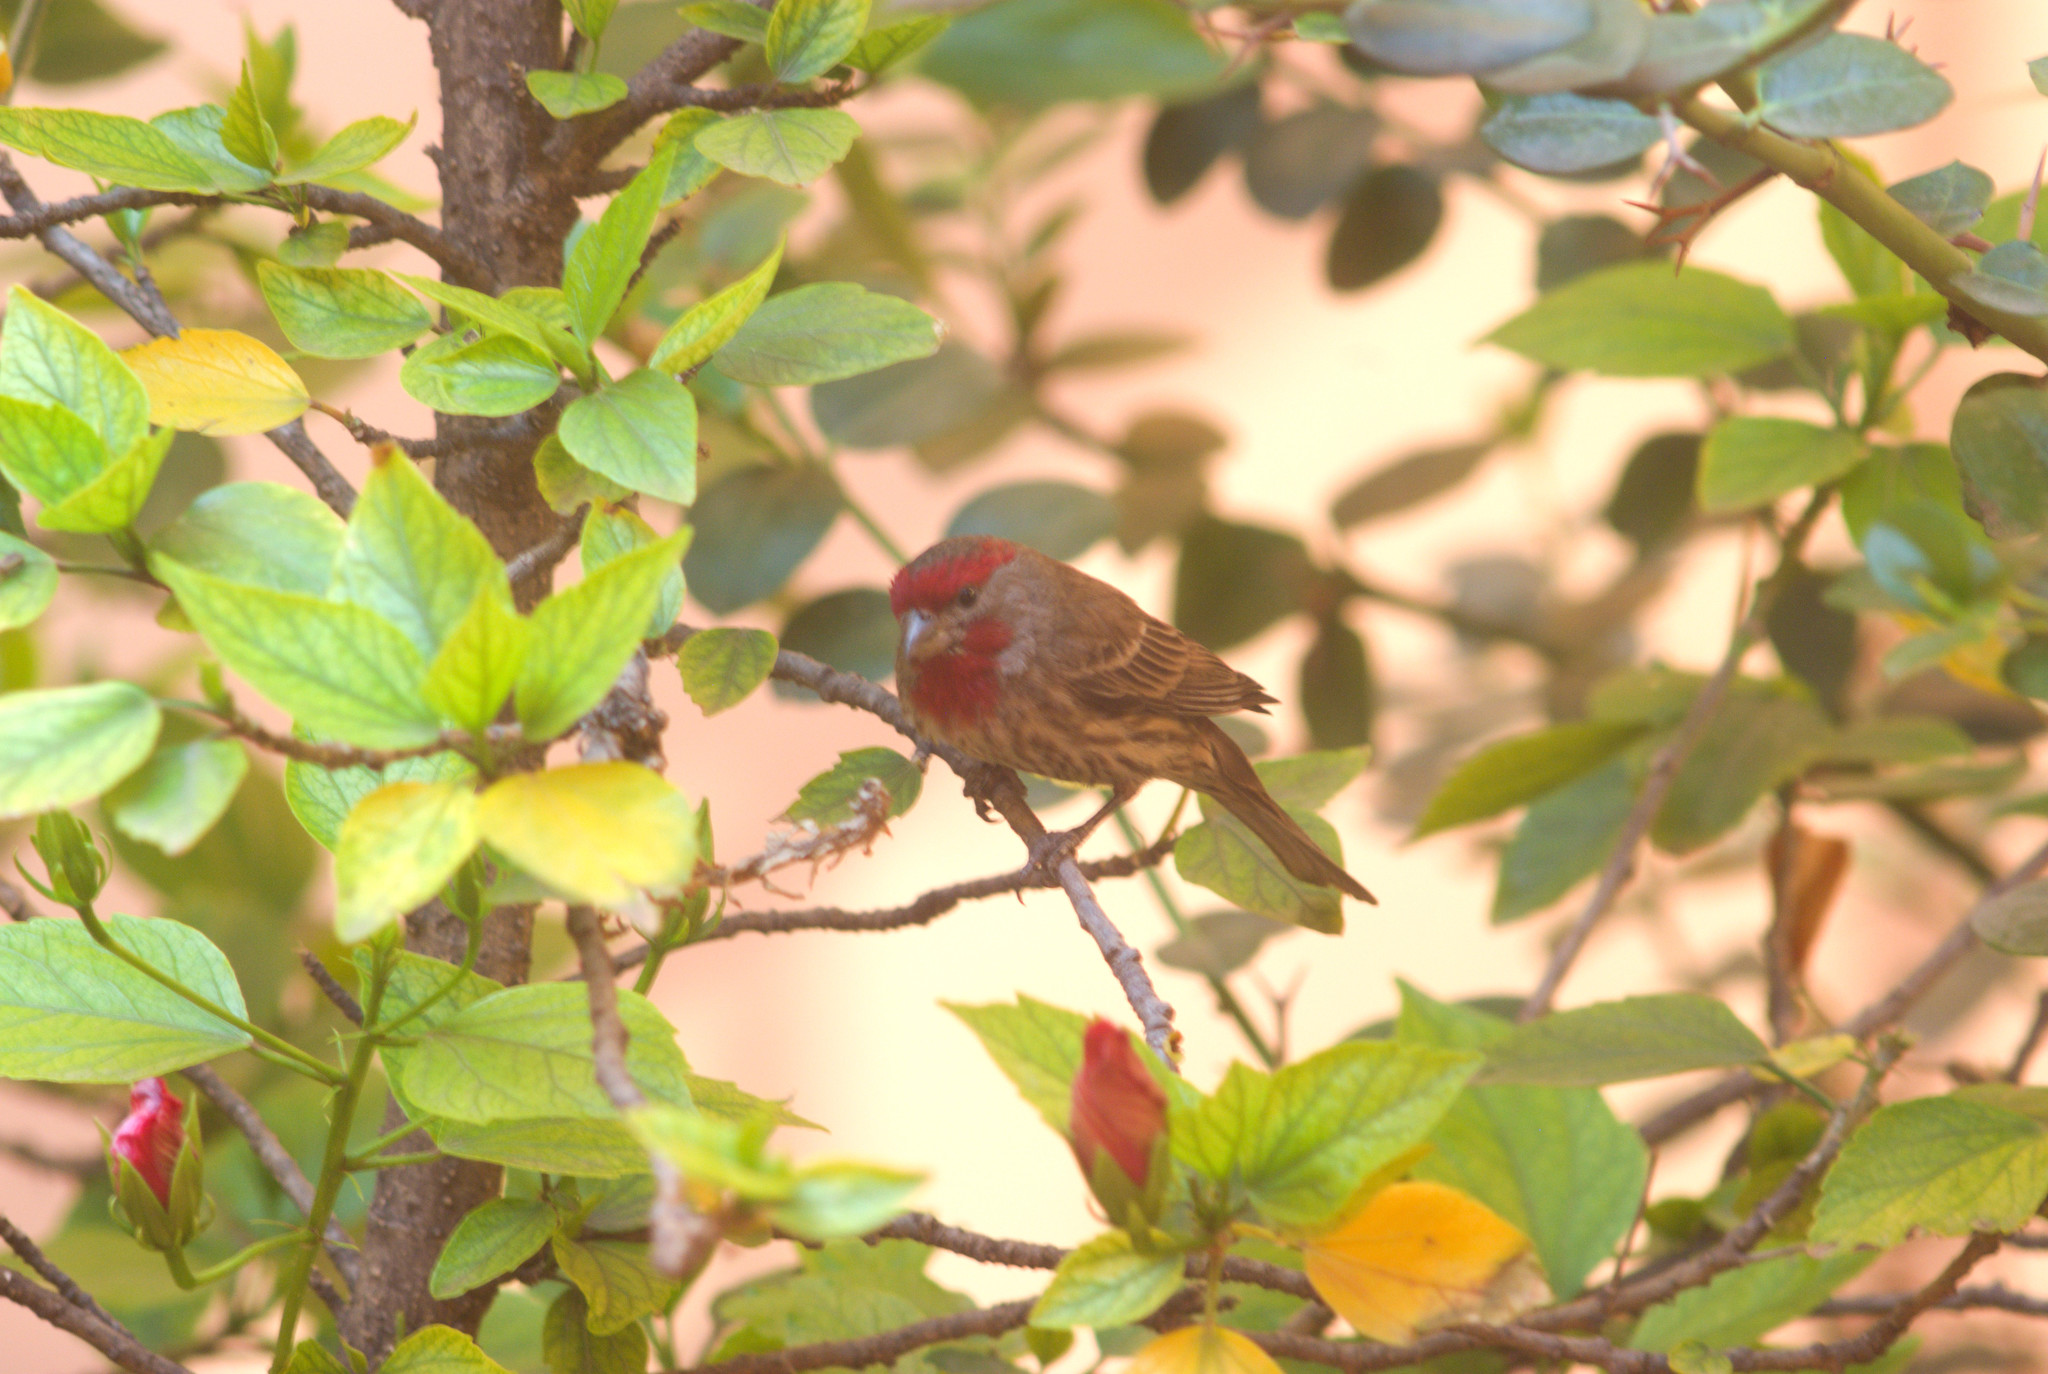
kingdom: Animalia
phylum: Chordata
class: Aves
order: Passeriformes
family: Fringillidae
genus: Haemorhous
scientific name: Haemorhous mexicanus
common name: House finch
